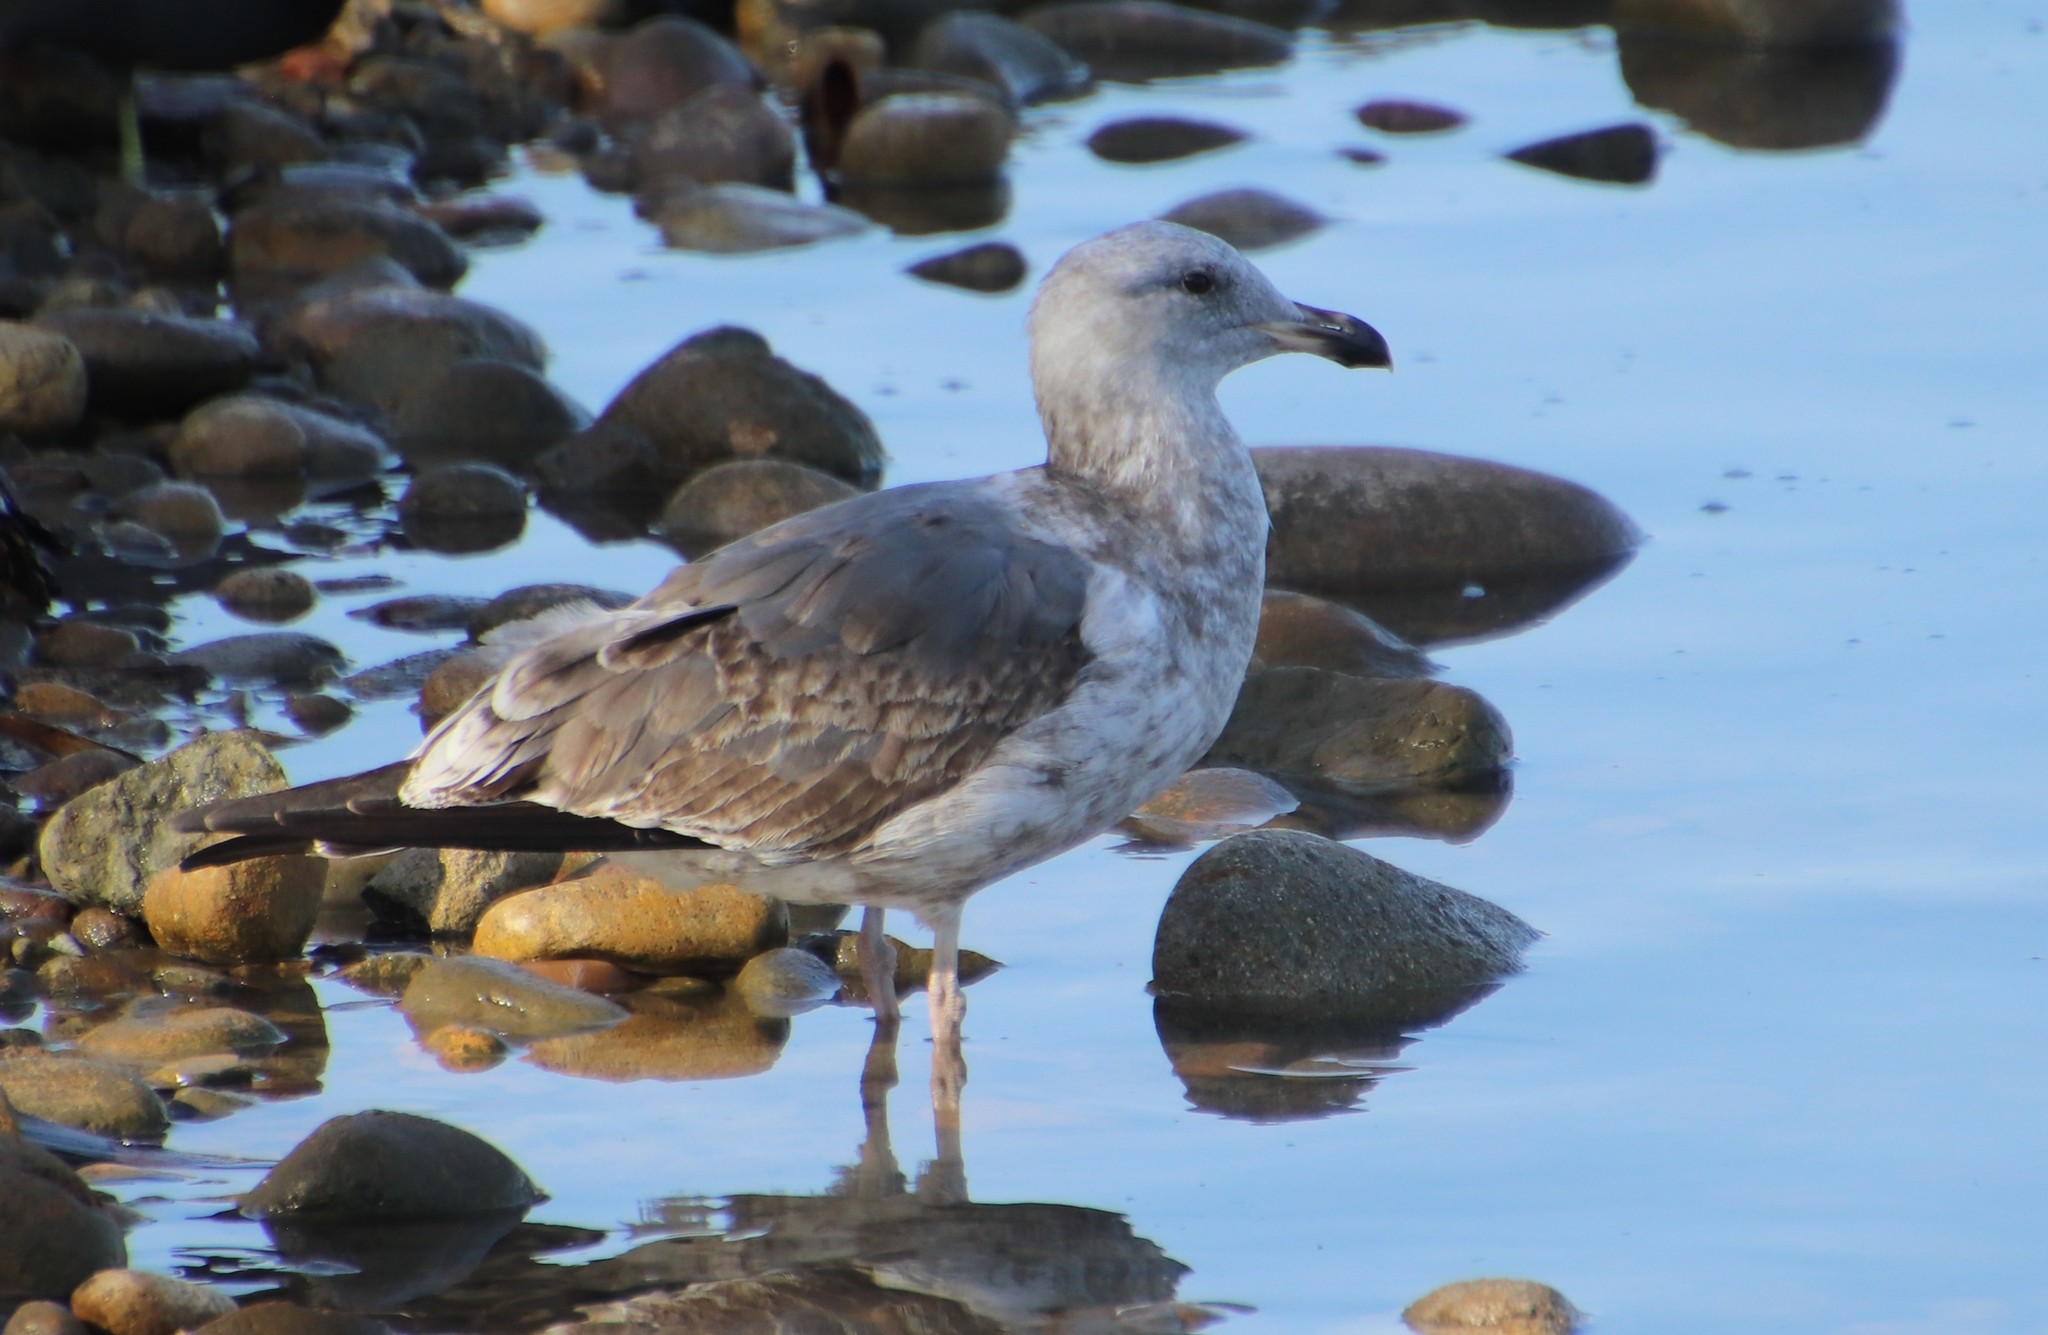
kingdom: Animalia
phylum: Chordata
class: Aves
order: Charadriiformes
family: Laridae
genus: Larus
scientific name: Larus occidentalis
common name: Western gull
